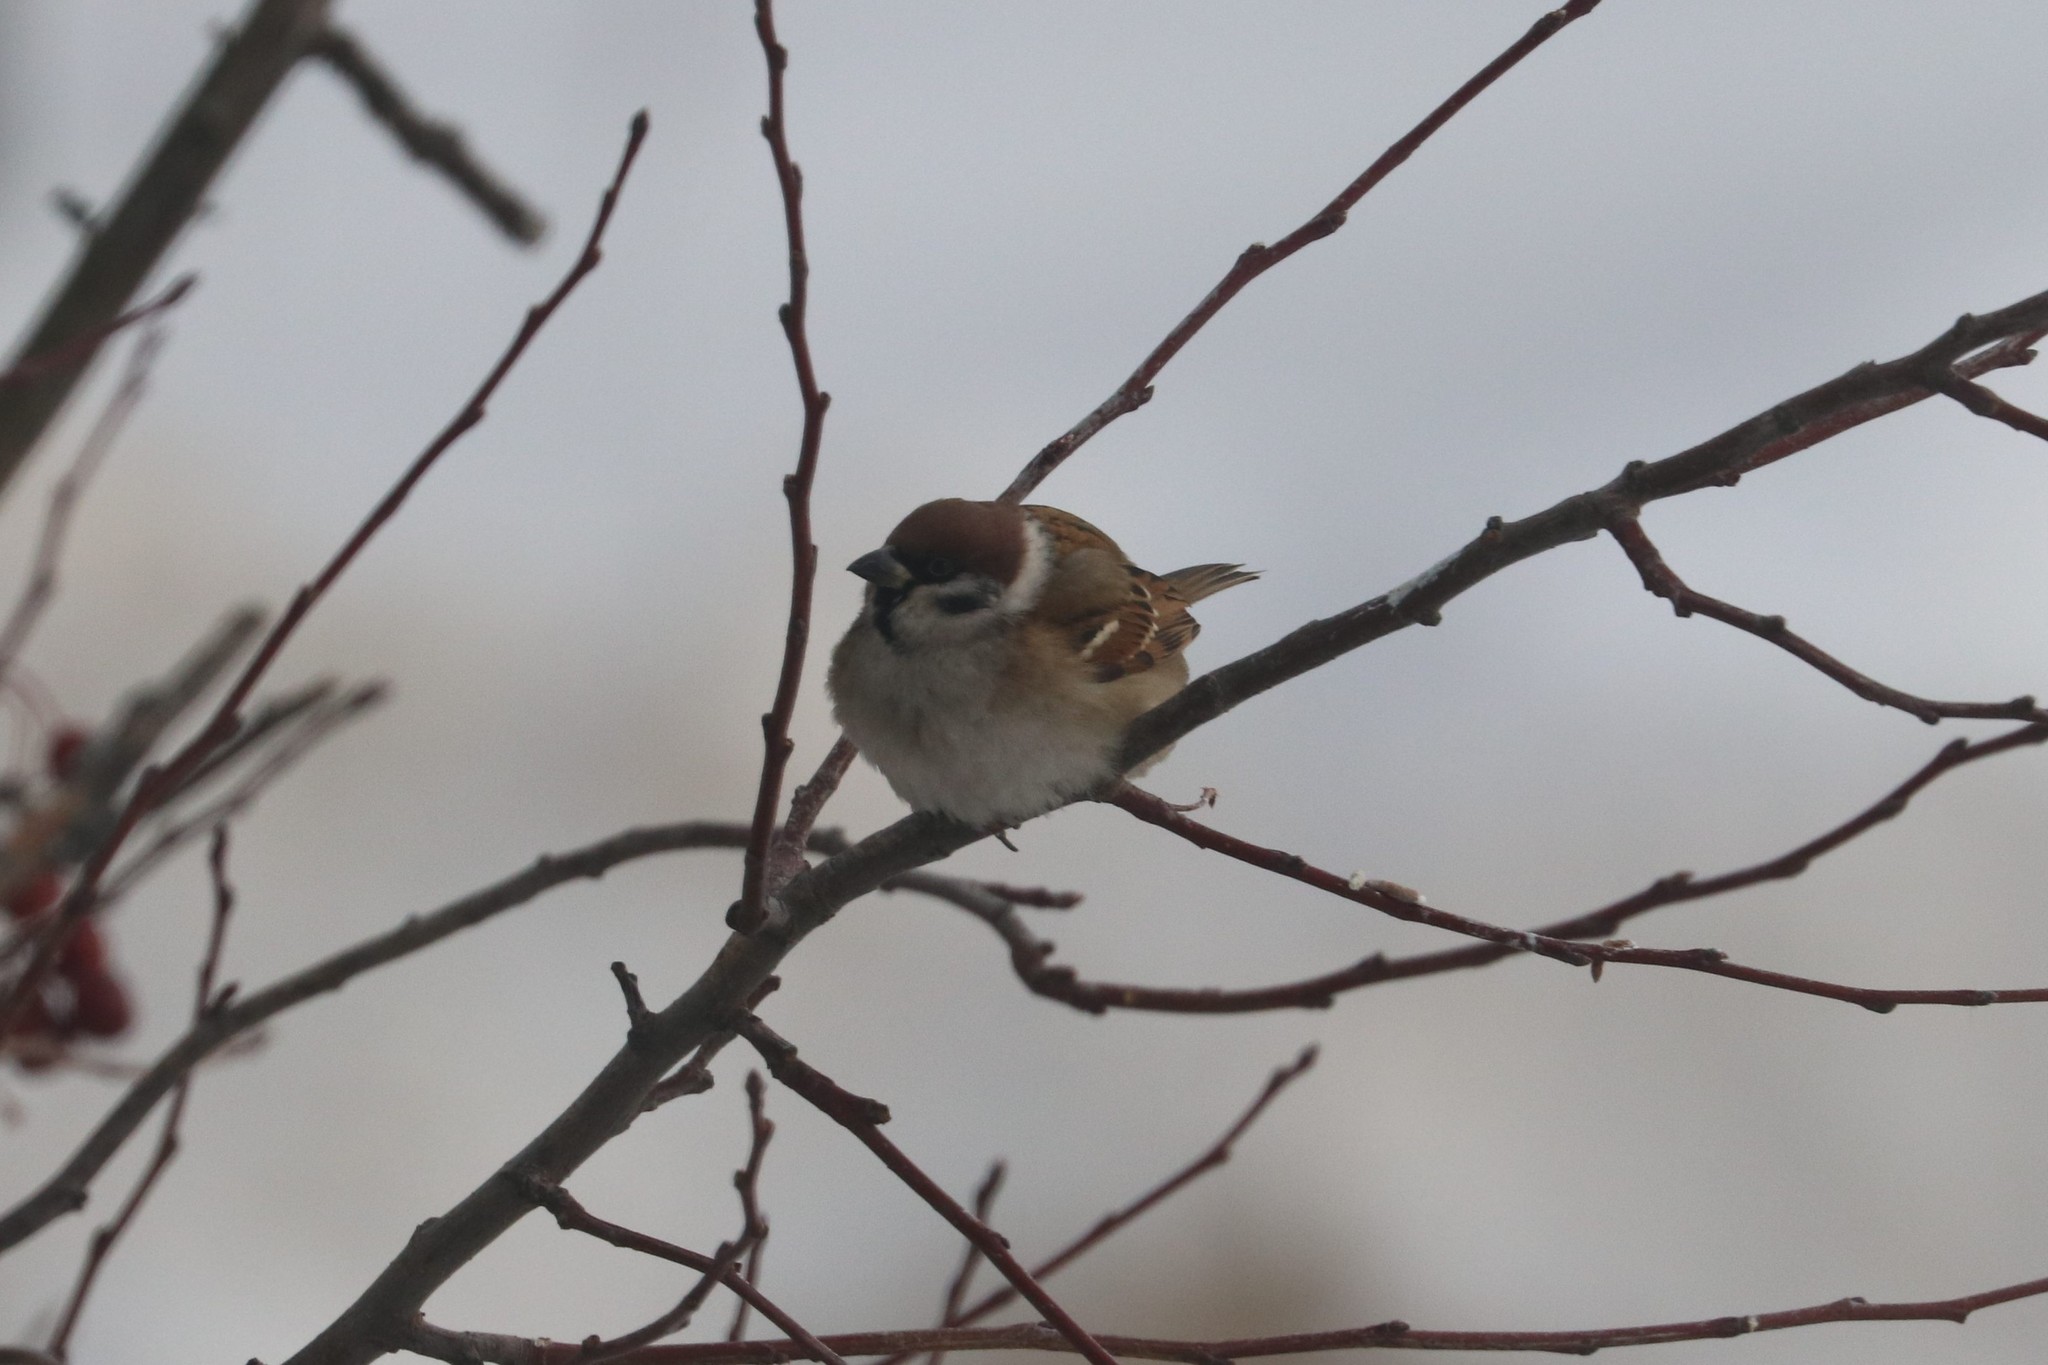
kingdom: Animalia
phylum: Chordata
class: Aves
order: Passeriformes
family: Passeridae
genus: Passer
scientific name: Passer montanus
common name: Eurasian tree sparrow
